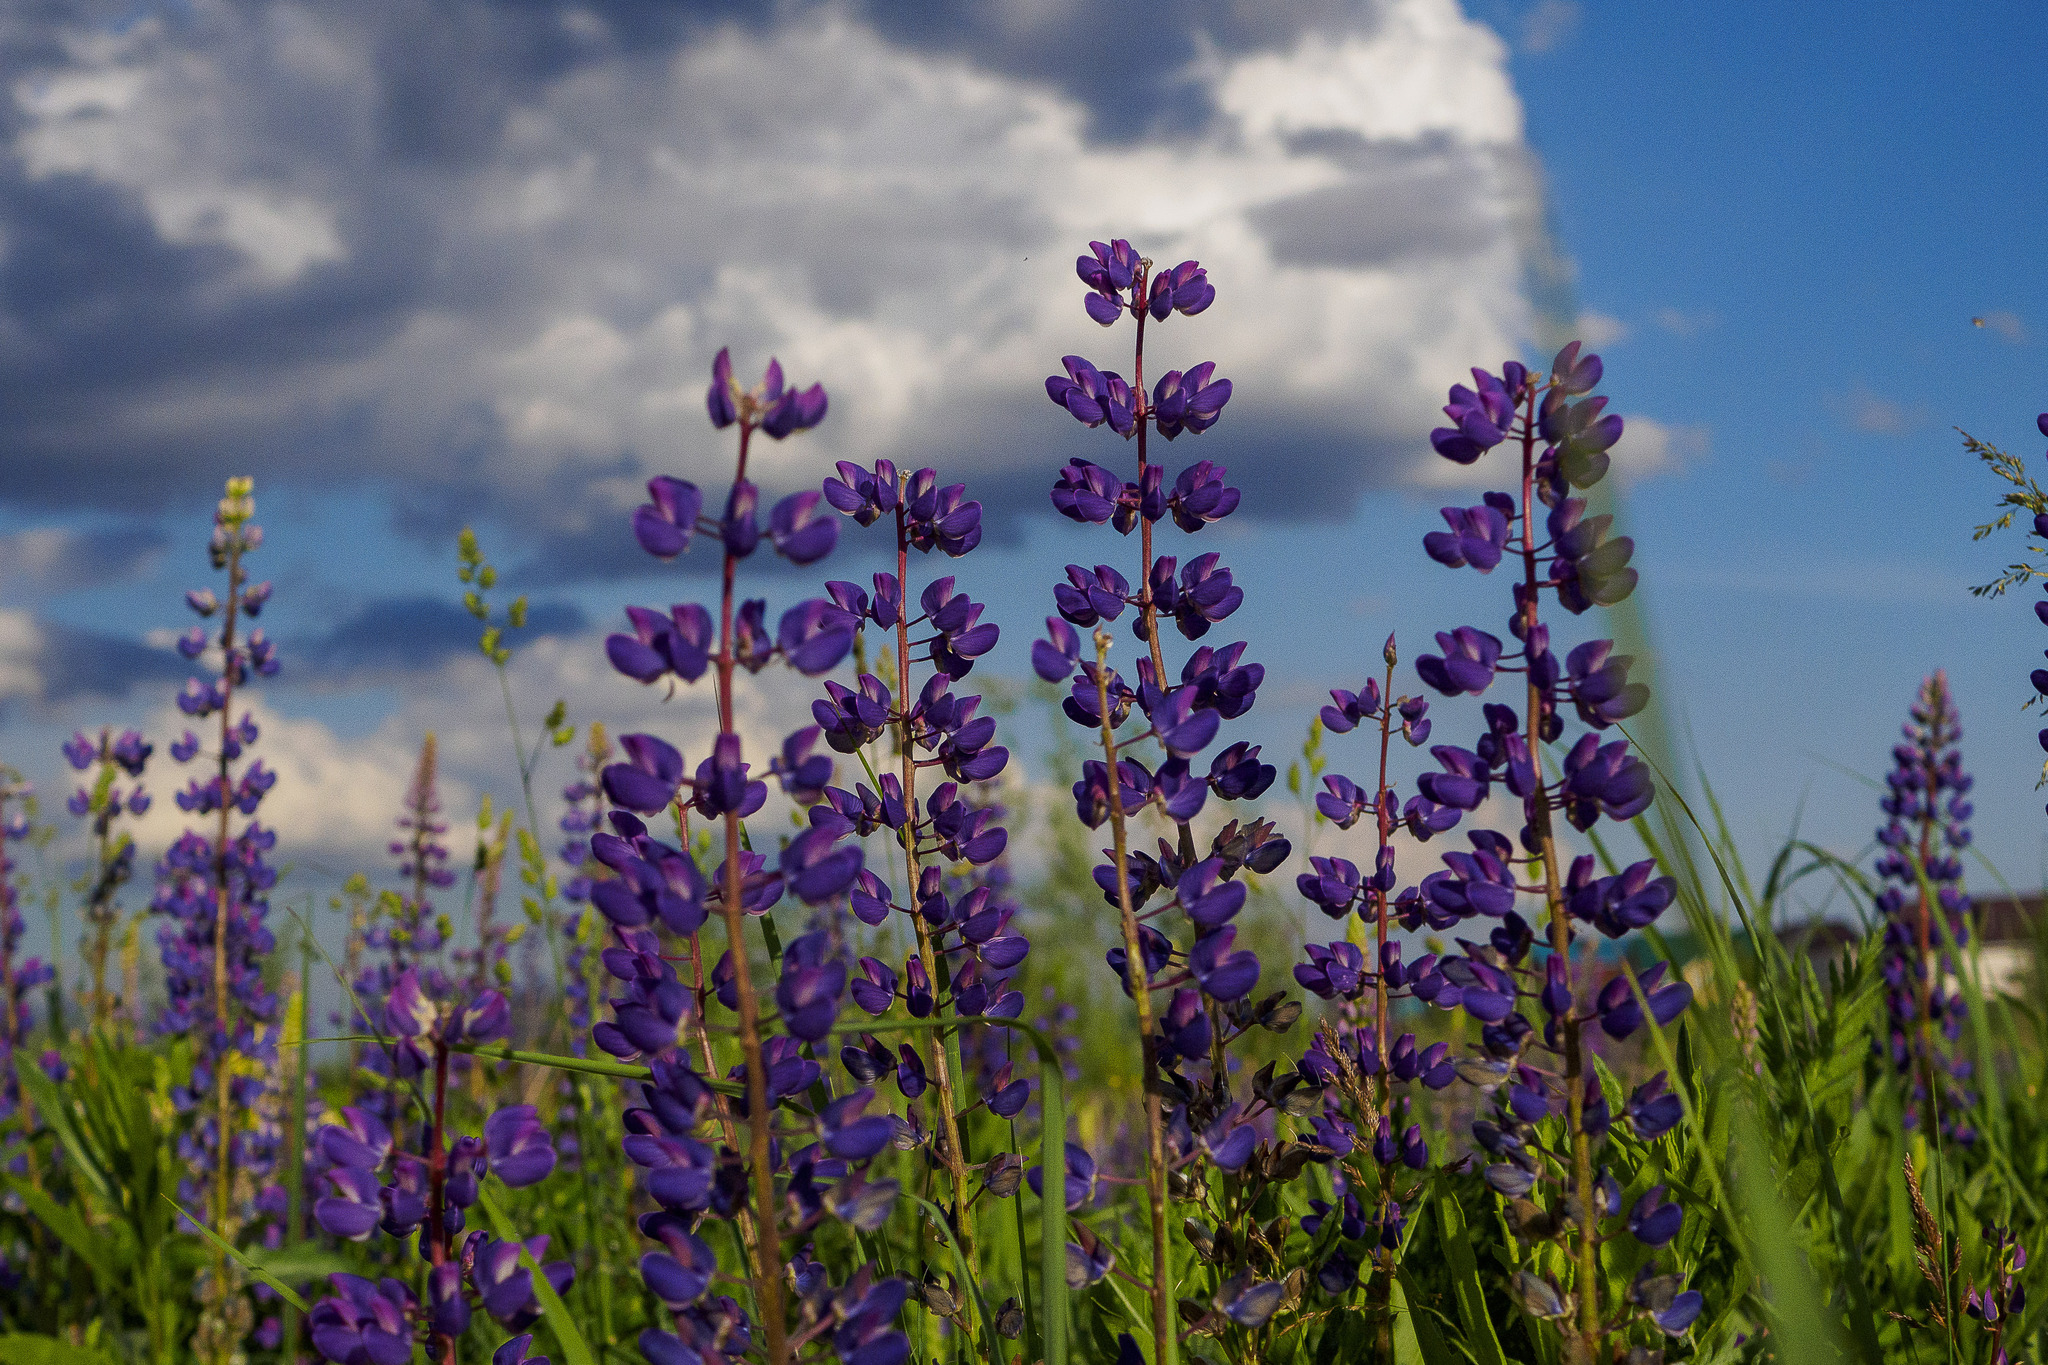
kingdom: Plantae
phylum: Tracheophyta
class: Magnoliopsida
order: Fabales
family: Fabaceae
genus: Lupinus
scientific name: Lupinus polyphyllus
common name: Garden lupin
